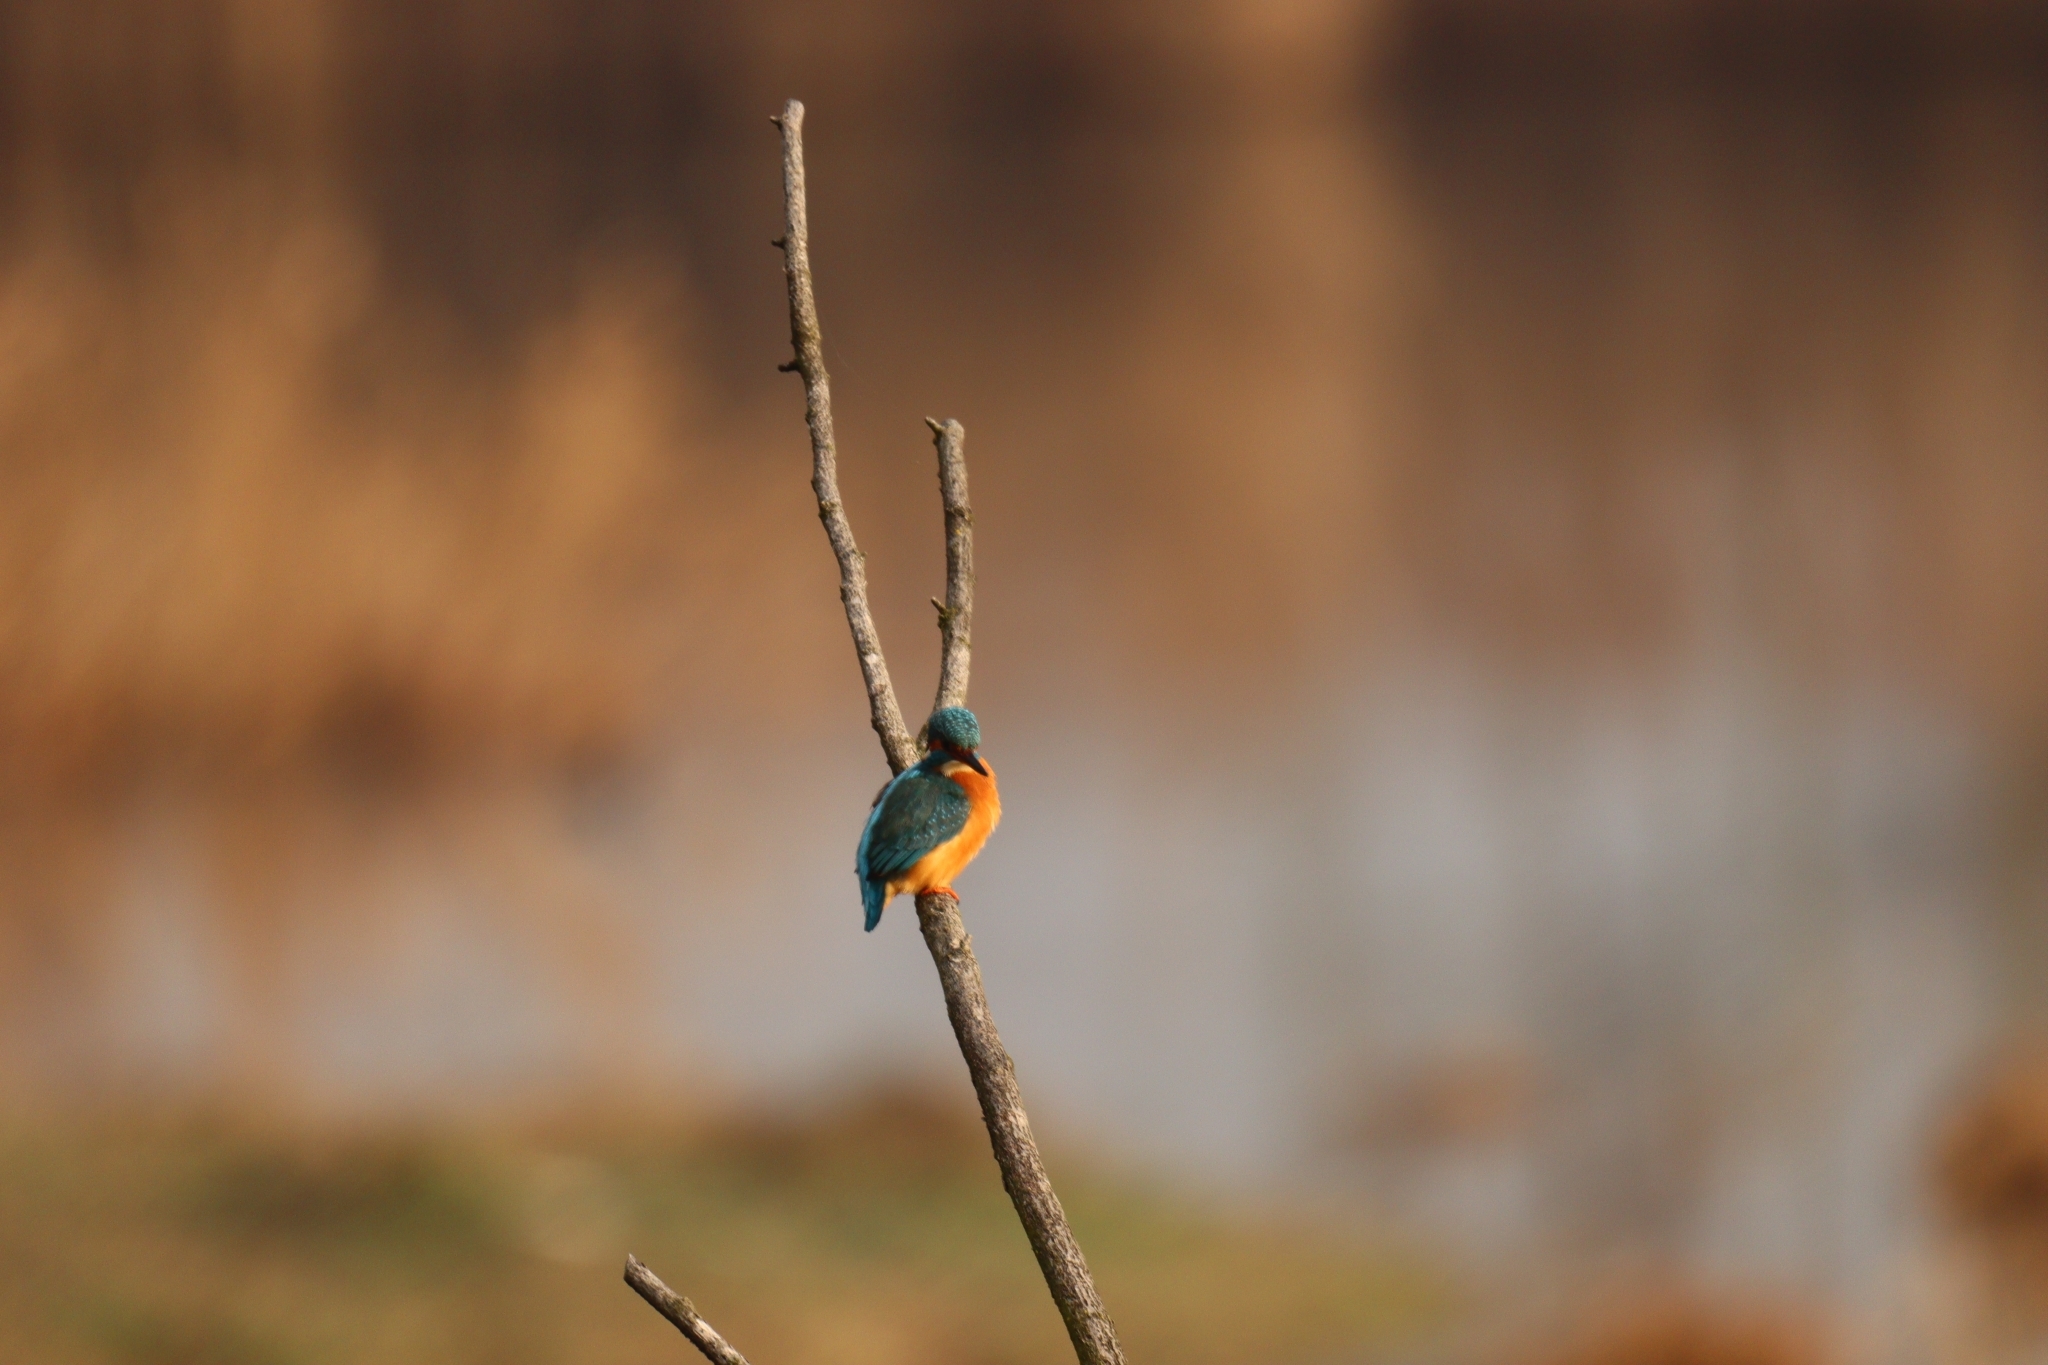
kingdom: Animalia
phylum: Chordata
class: Aves
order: Coraciiformes
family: Alcedinidae
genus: Alcedo
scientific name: Alcedo atthis
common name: Common kingfisher
